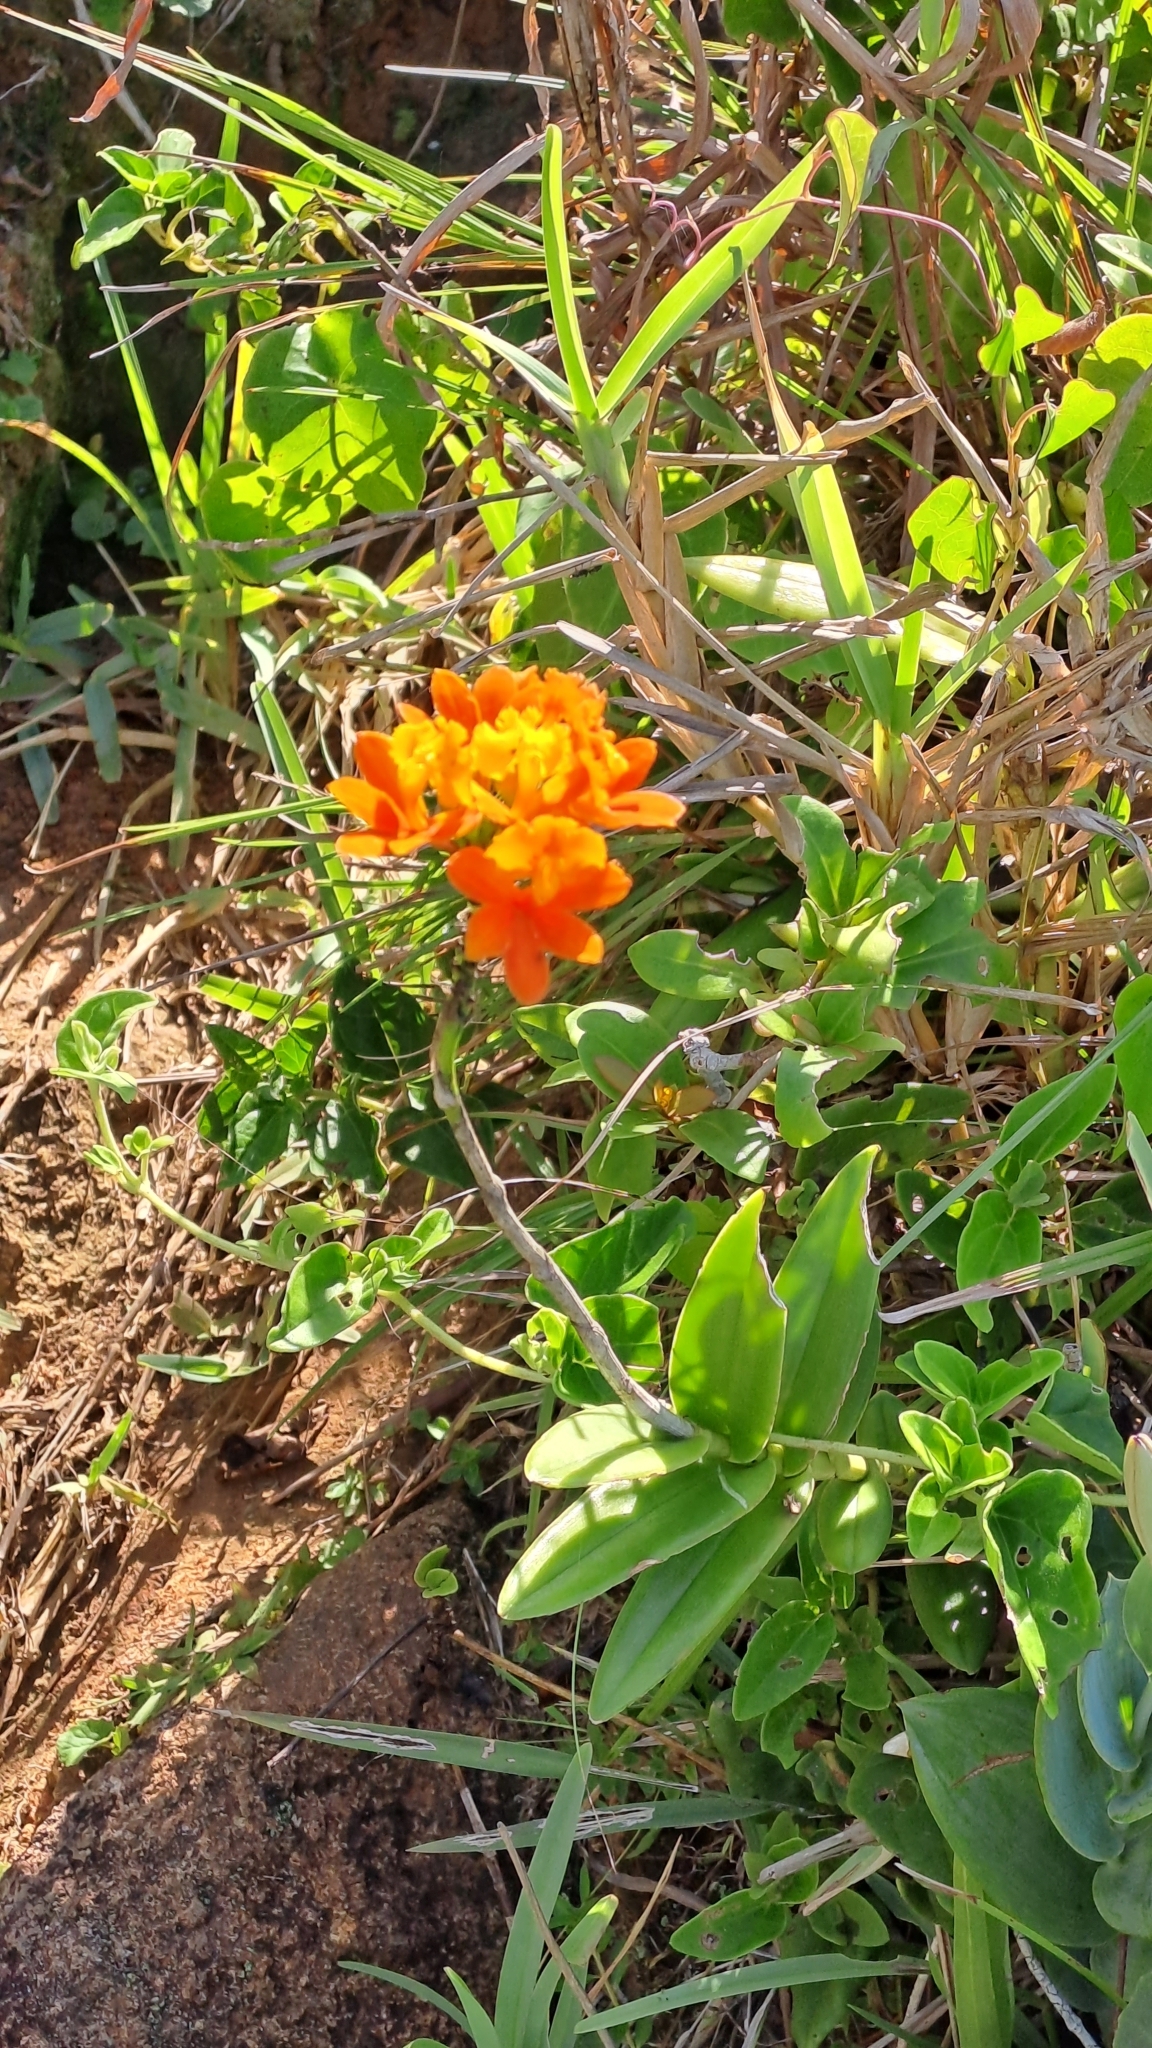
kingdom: Plantae
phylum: Tracheophyta
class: Liliopsida
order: Asparagales
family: Orchidaceae
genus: Epidendrum
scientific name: Epidendrum fulgens
